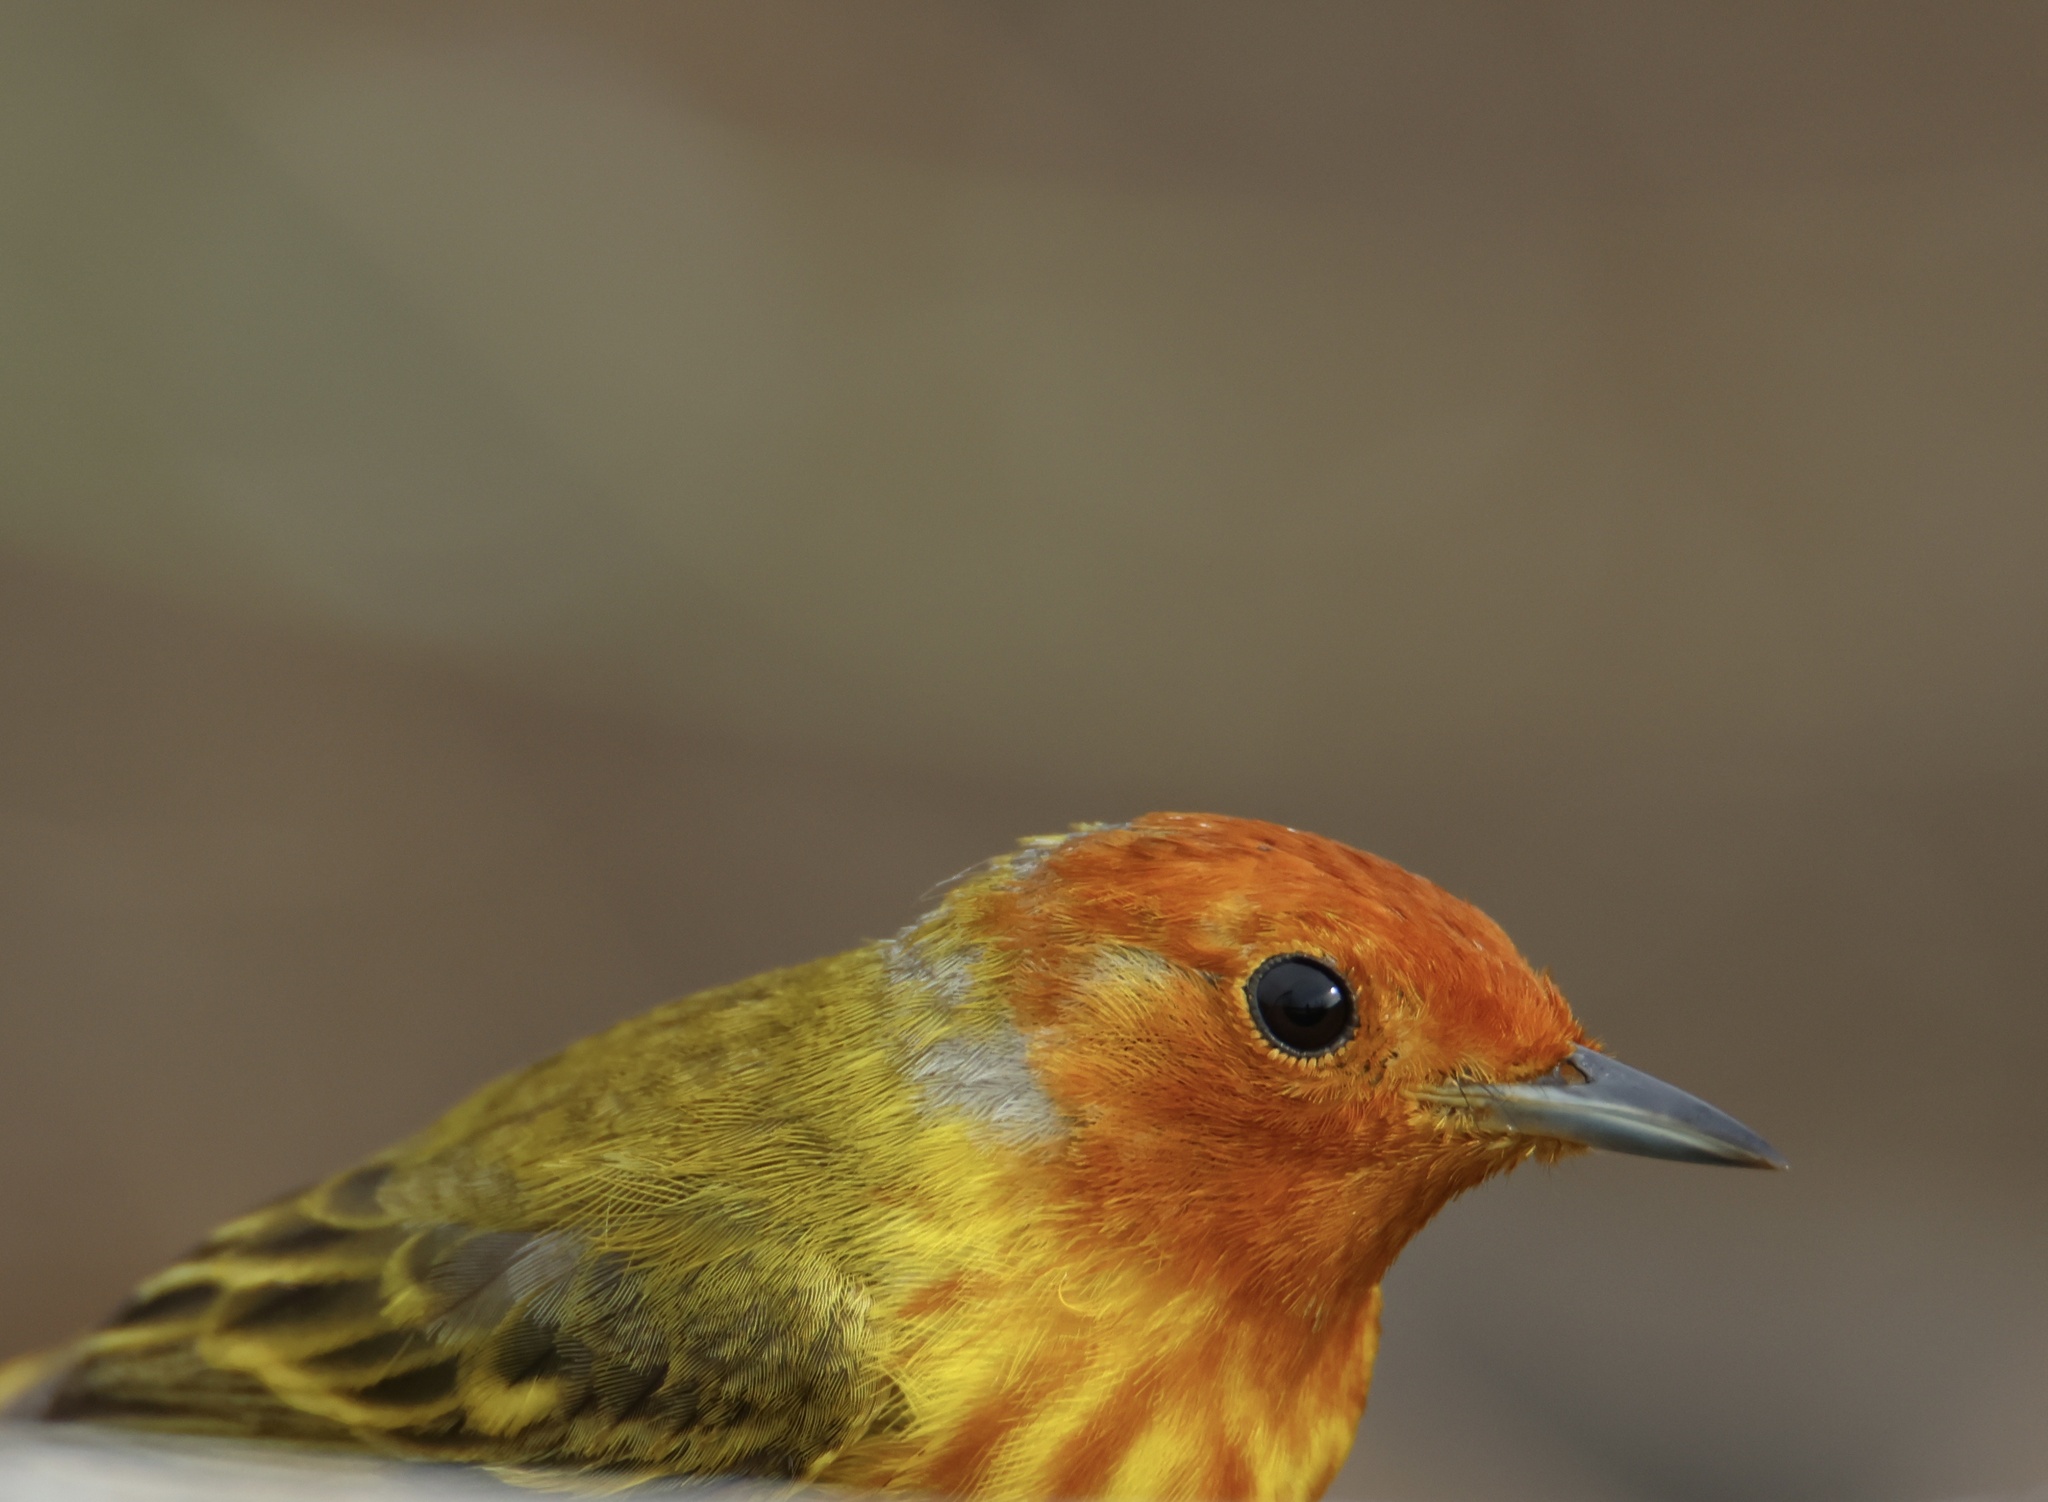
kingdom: Animalia
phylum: Chordata
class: Aves
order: Passeriformes
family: Parulidae
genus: Setophaga
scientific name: Setophaga petechia
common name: Yellow warbler
